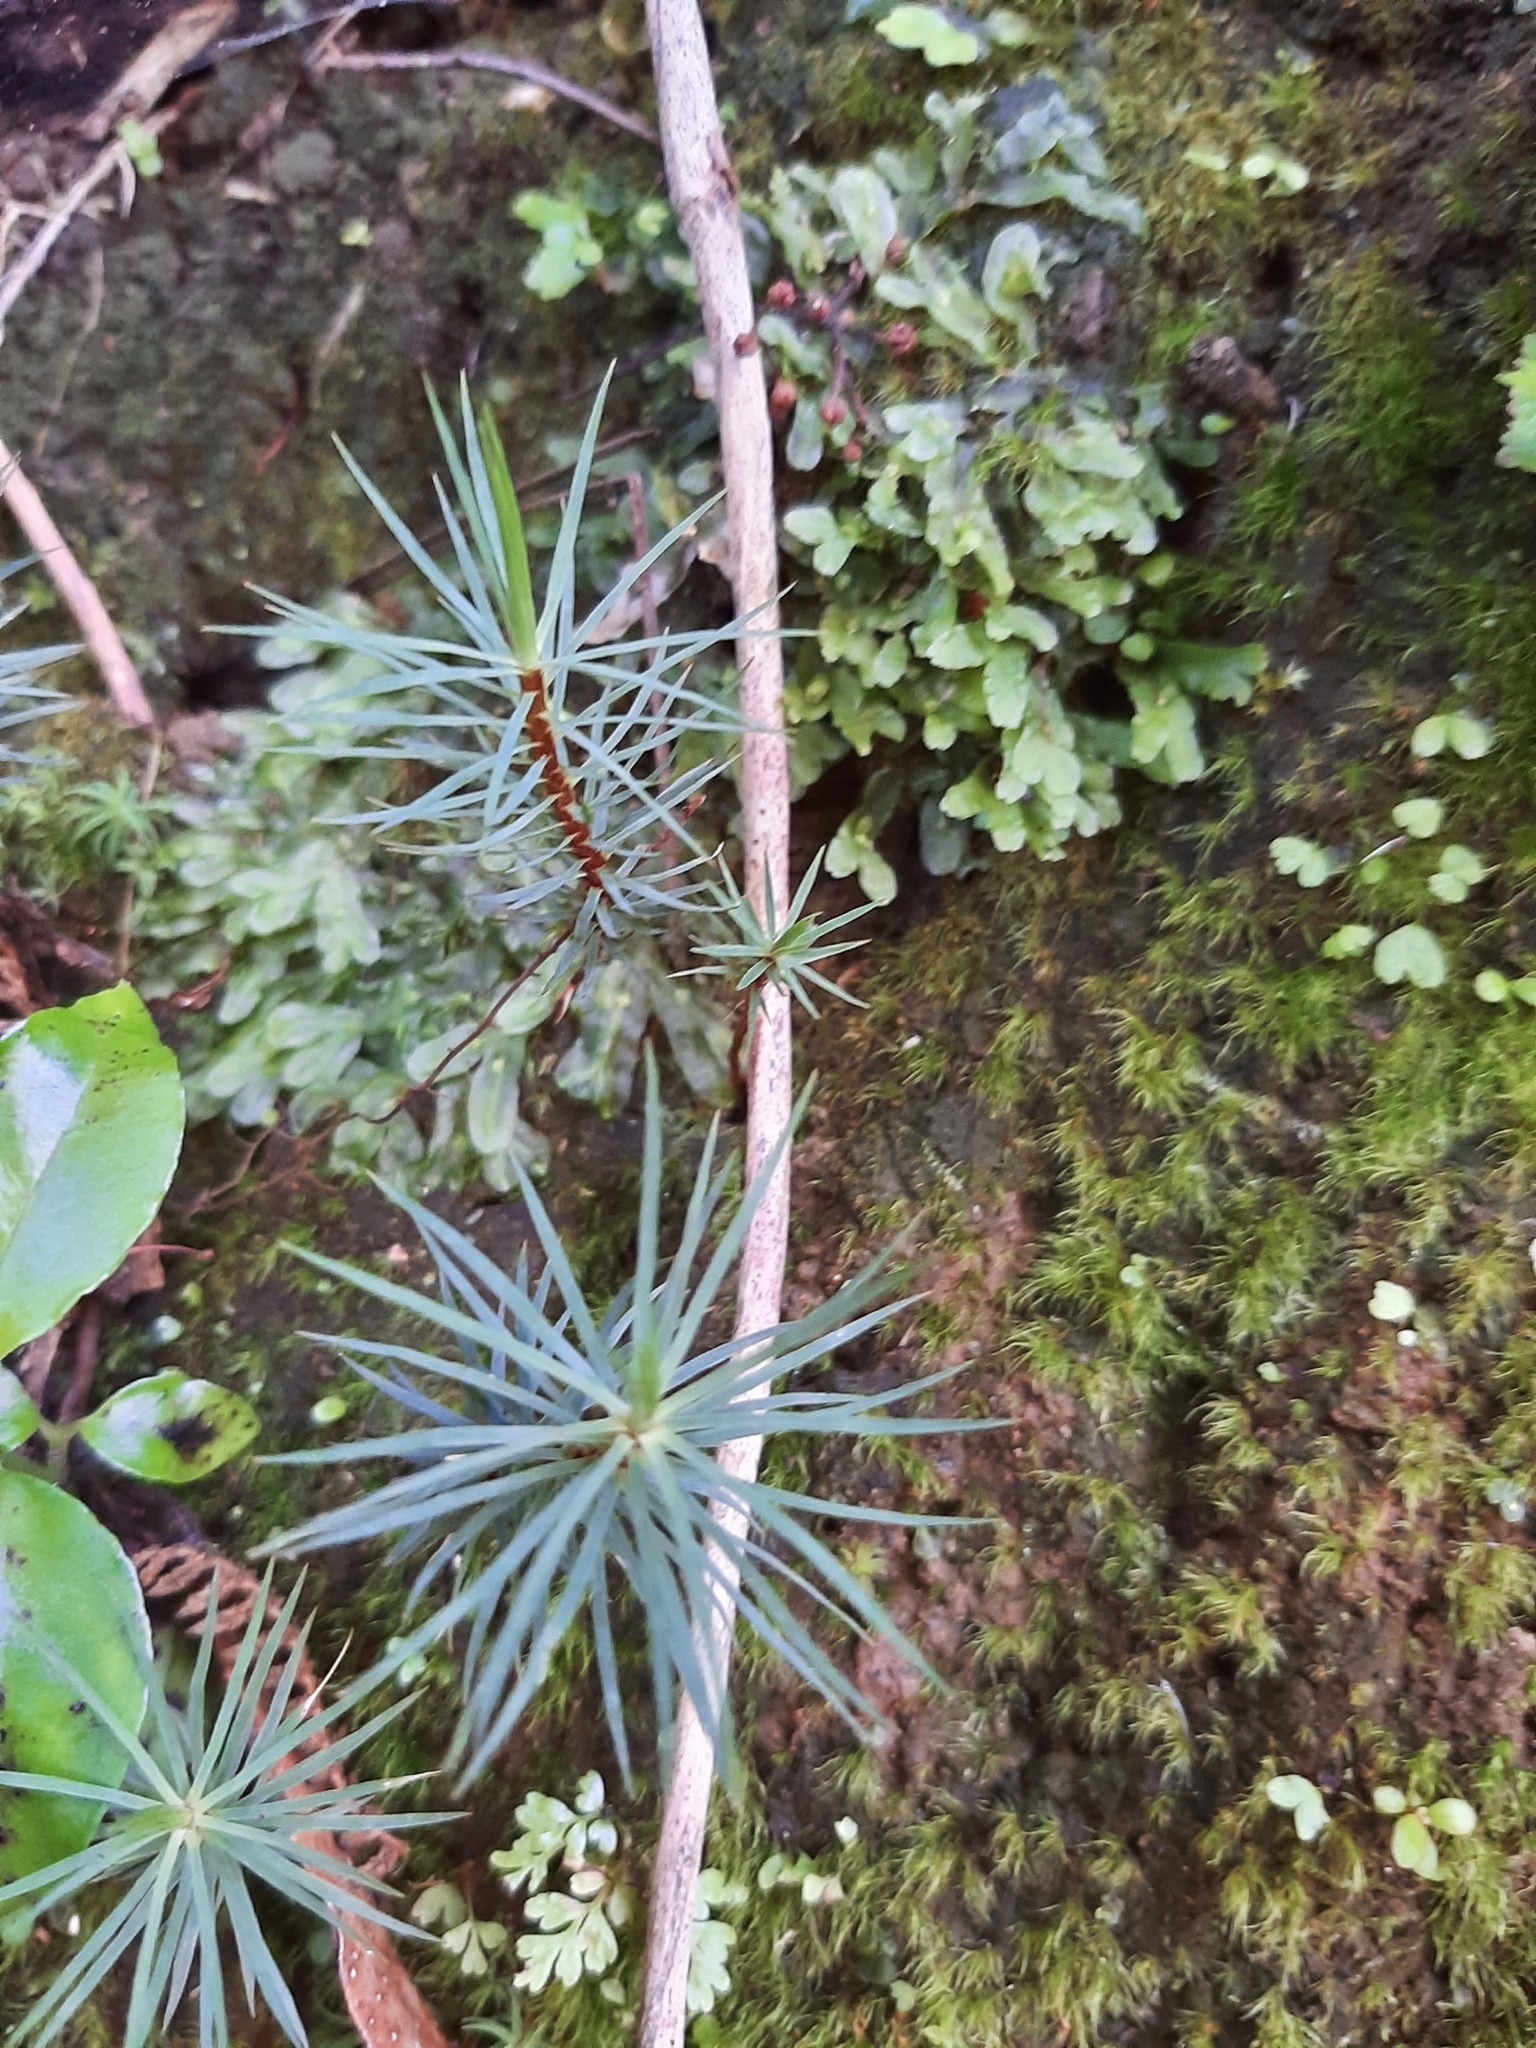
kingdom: Plantae
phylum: Bryophyta
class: Polytrichopsida
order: Polytrichales
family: Polytrichaceae
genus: Dawsonia
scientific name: Dawsonia superba
